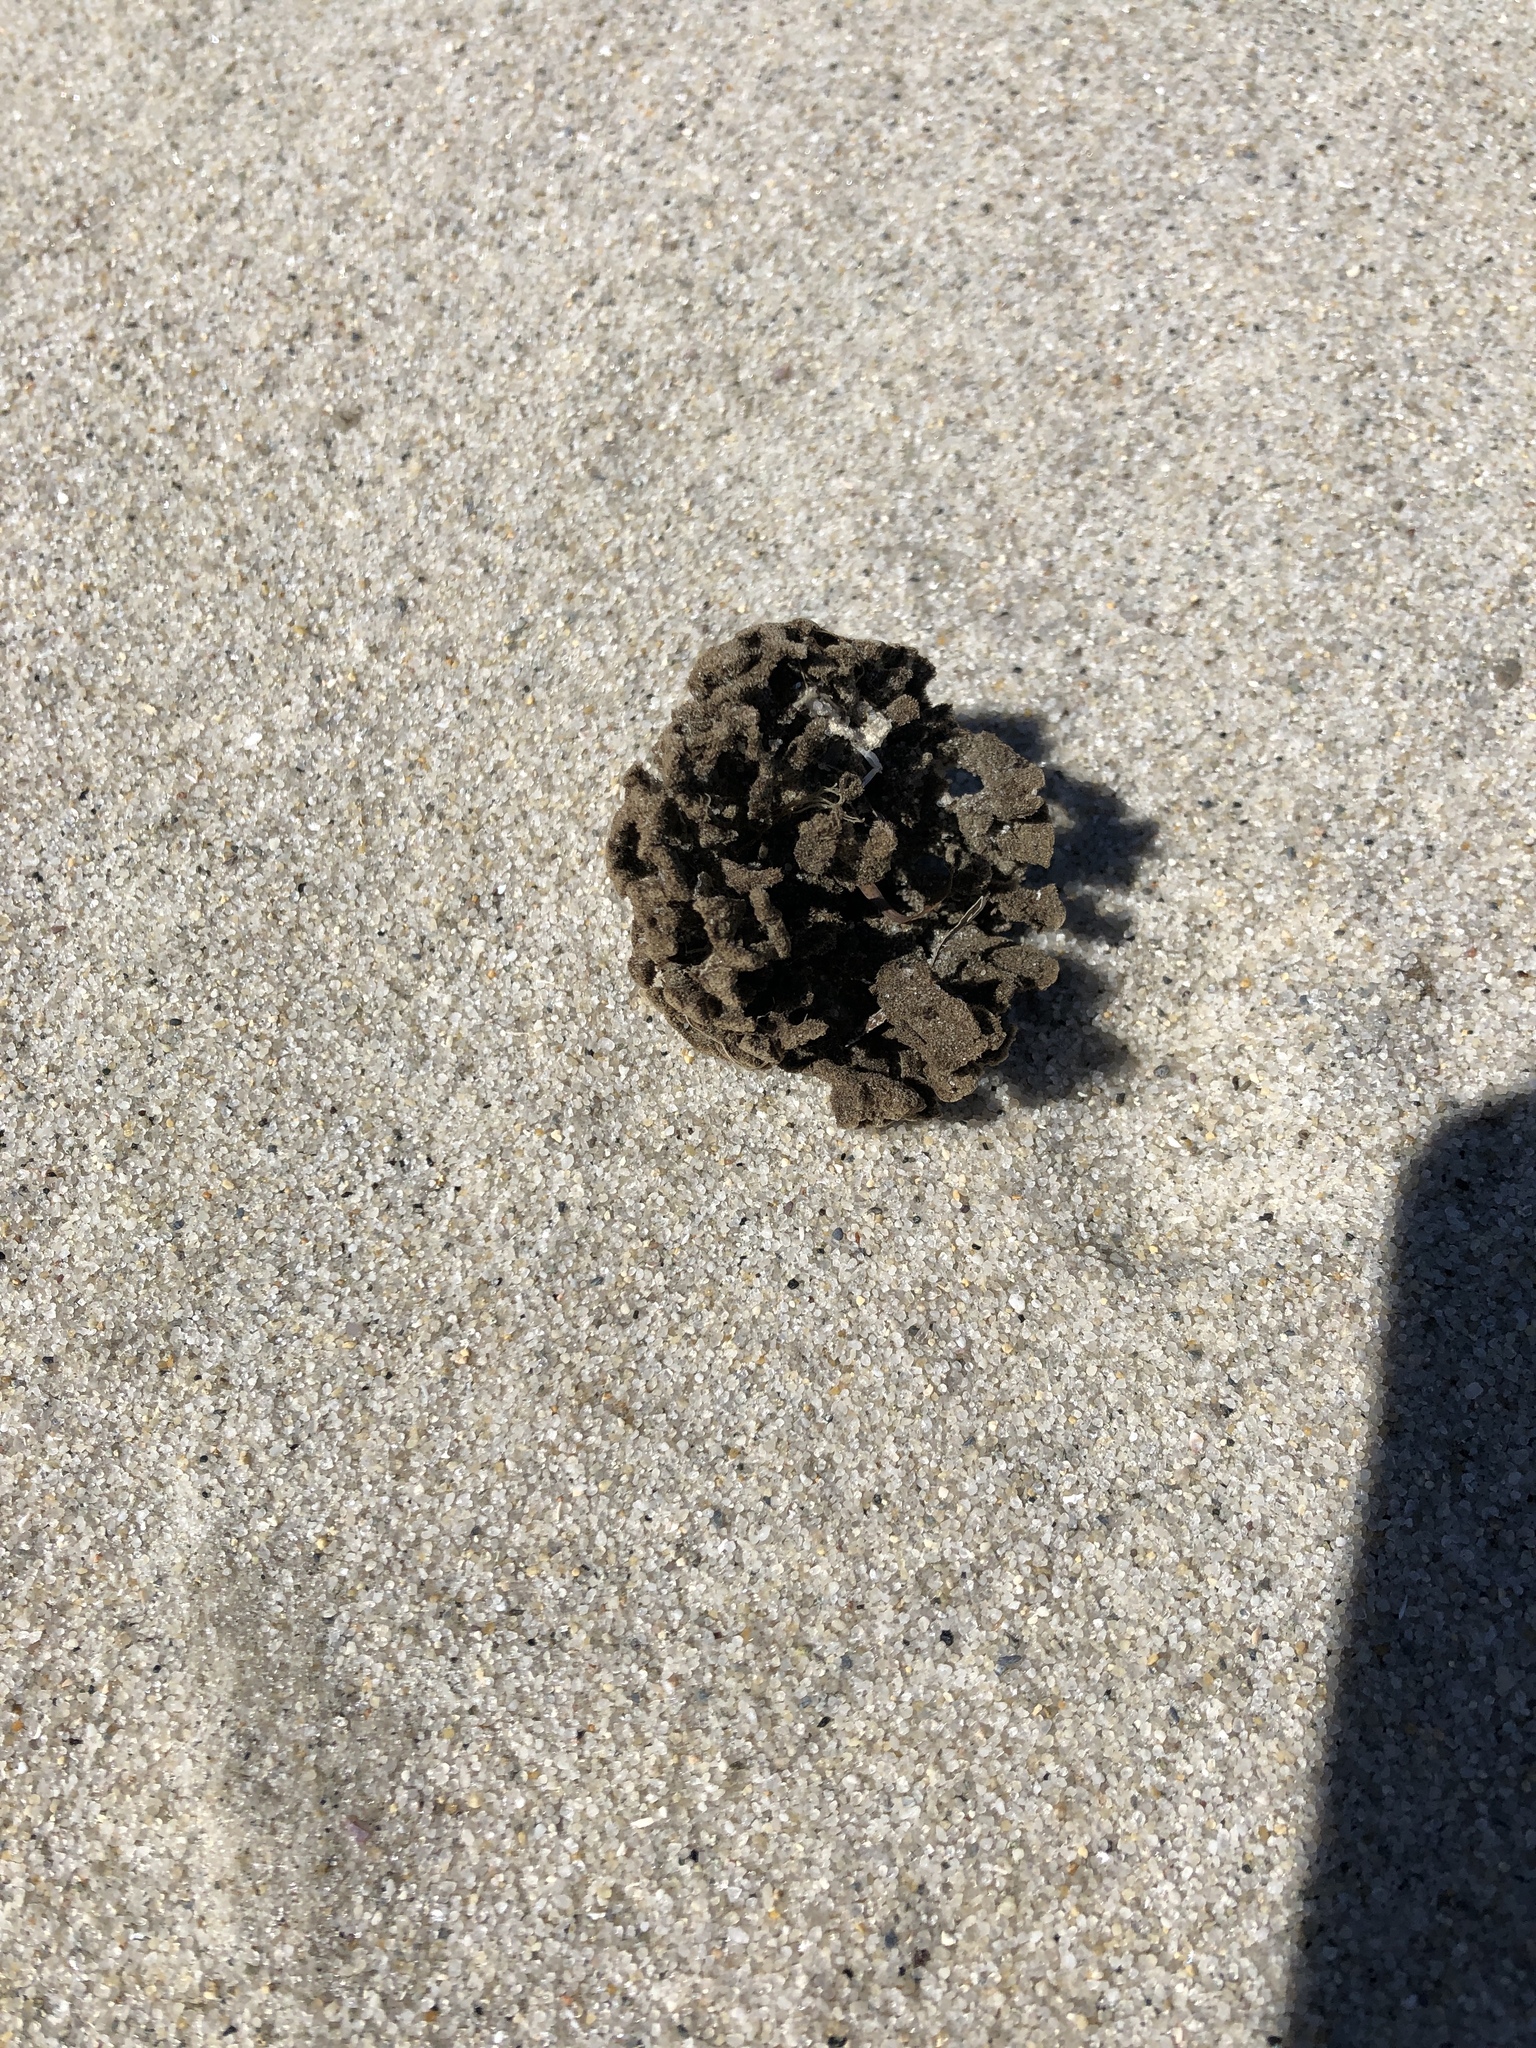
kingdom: Animalia
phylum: Porifera
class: Demospongiae
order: Poecilosclerida
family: Microcionidae
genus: Clathria
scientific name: Clathria prolifera
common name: Red beard sponge
